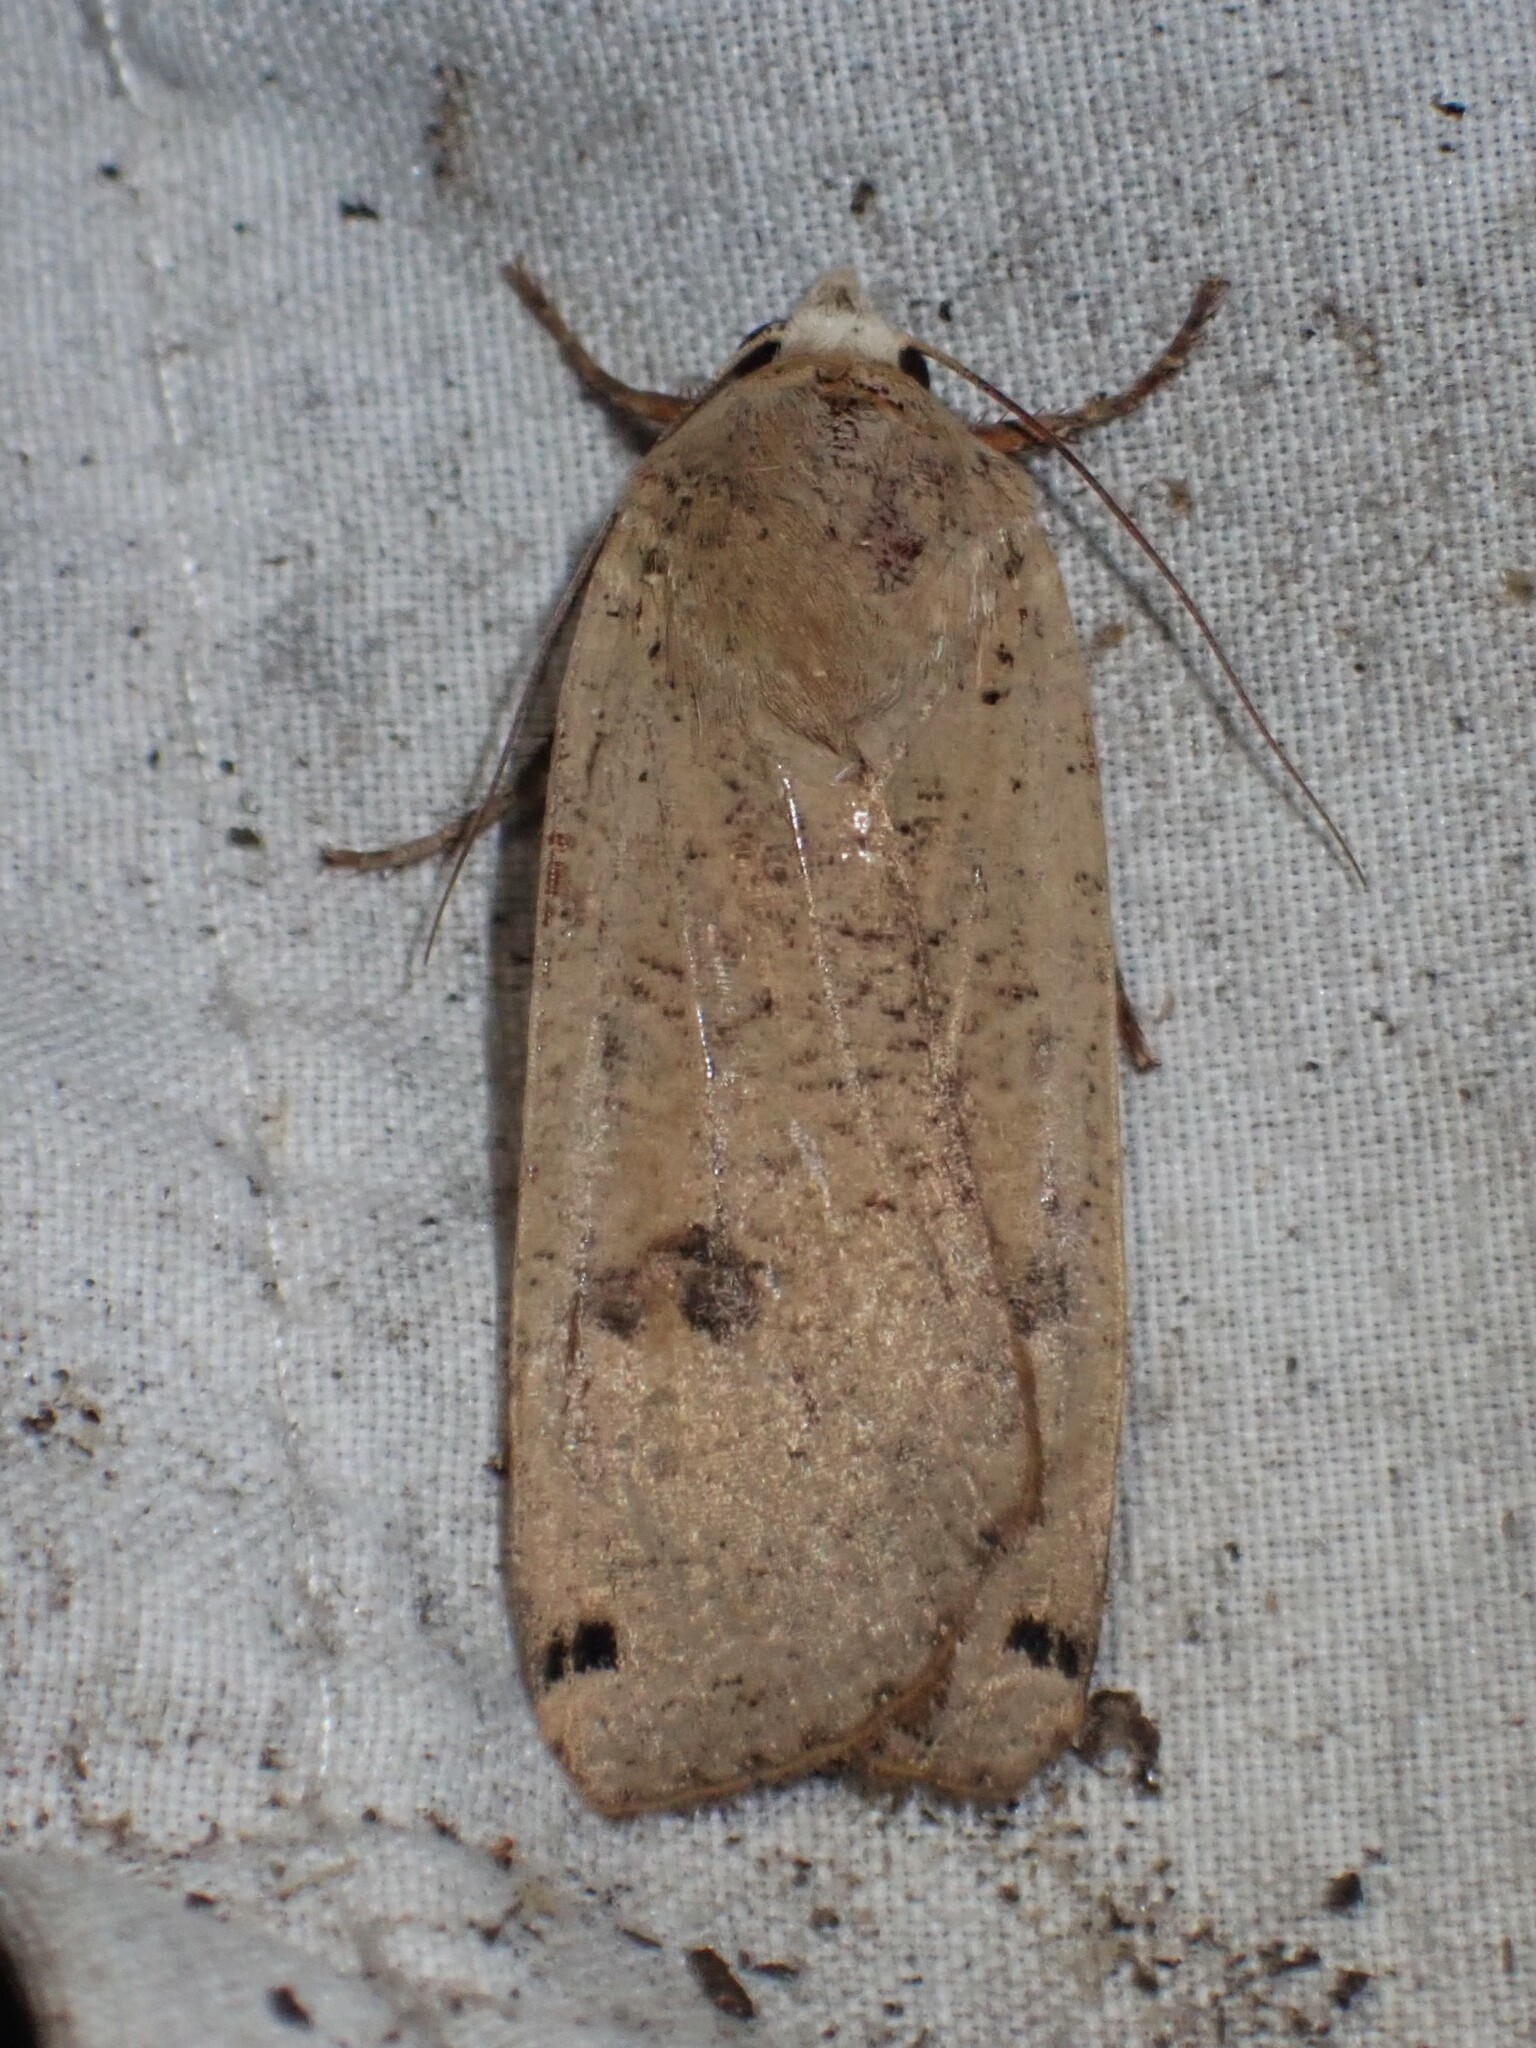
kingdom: Animalia
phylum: Arthropoda
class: Insecta
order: Lepidoptera
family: Noctuidae
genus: Noctua
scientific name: Noctua pronuba
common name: Large yellow underwing
